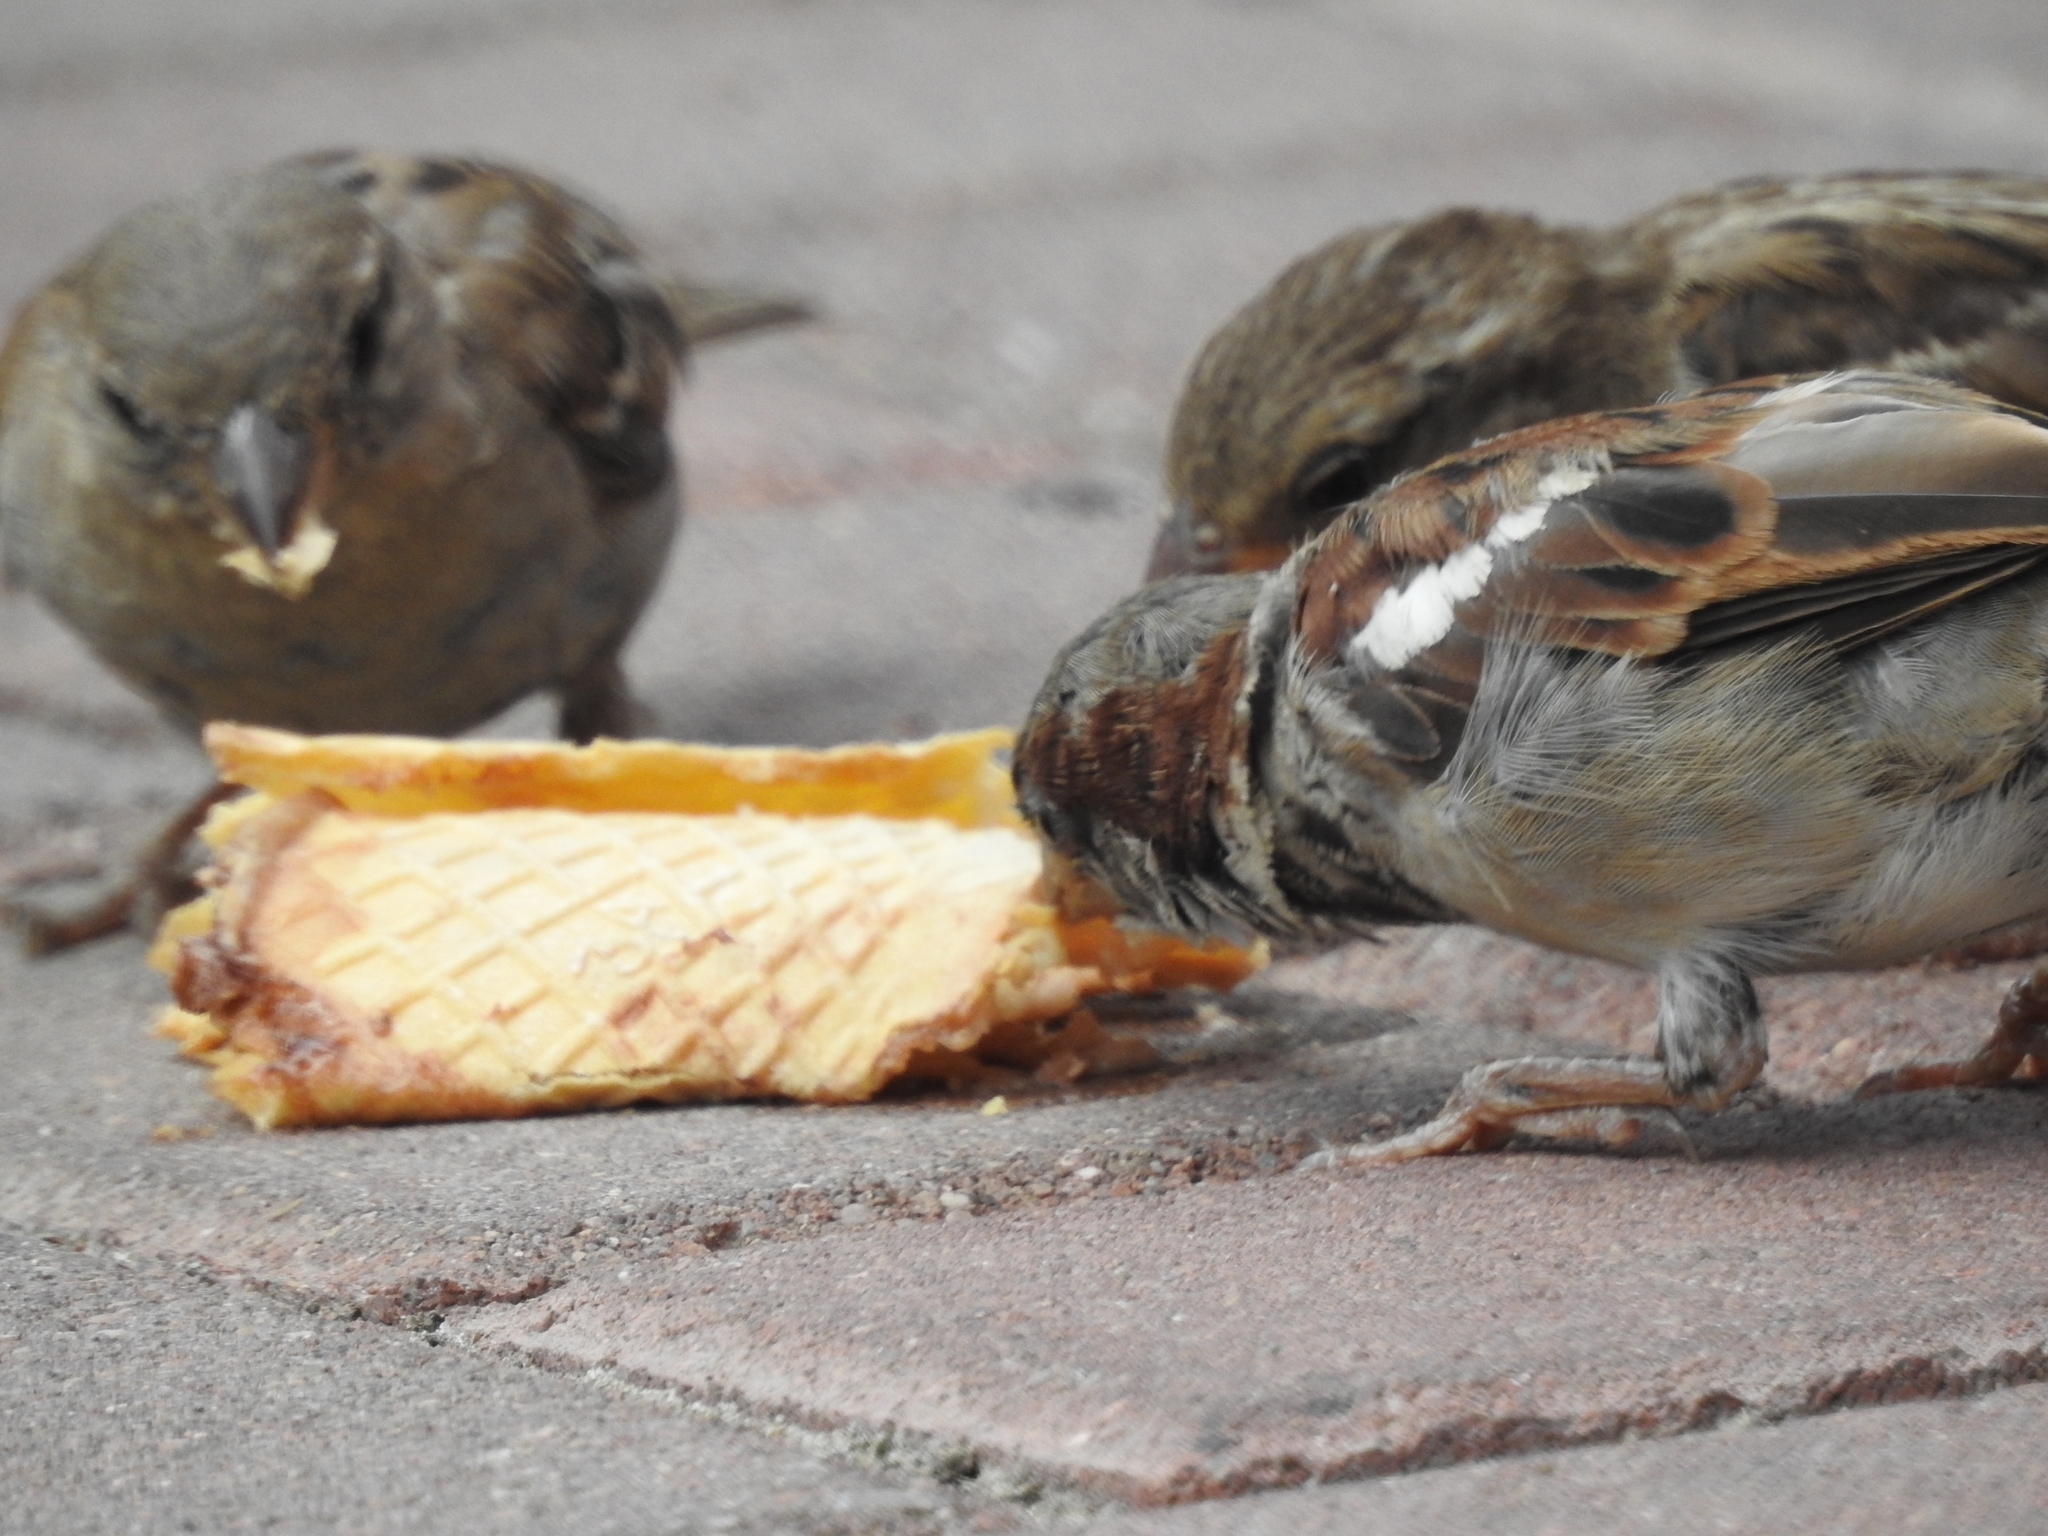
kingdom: Animalia
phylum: Chordata
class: Aves
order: Passeriformes
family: Passeridae
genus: Passer
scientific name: Passer domesticus
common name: House sparrow
